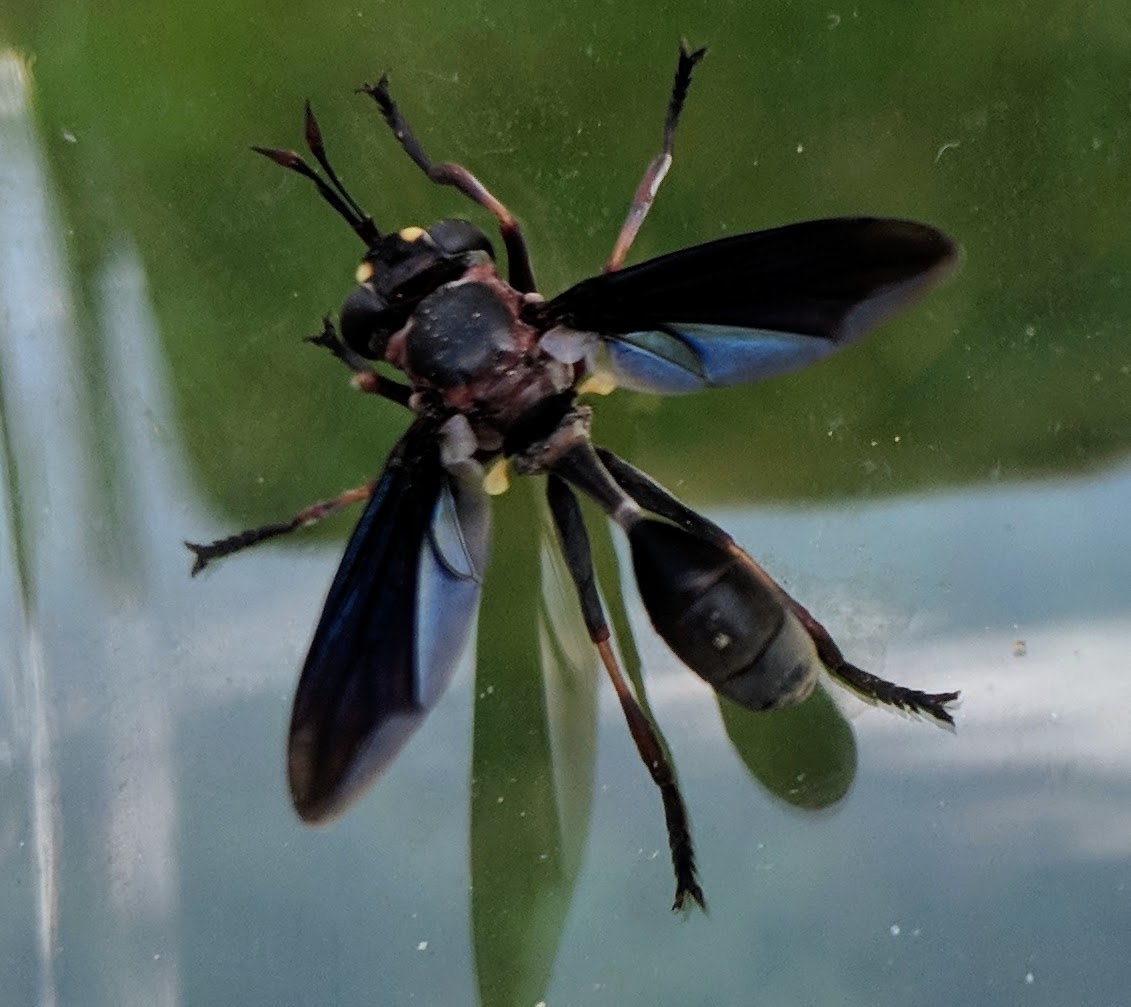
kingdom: Animalia
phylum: Arthropoda
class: Insecta
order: Diptera
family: Conopidae
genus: Physocephala
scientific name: Physocephala floridana
